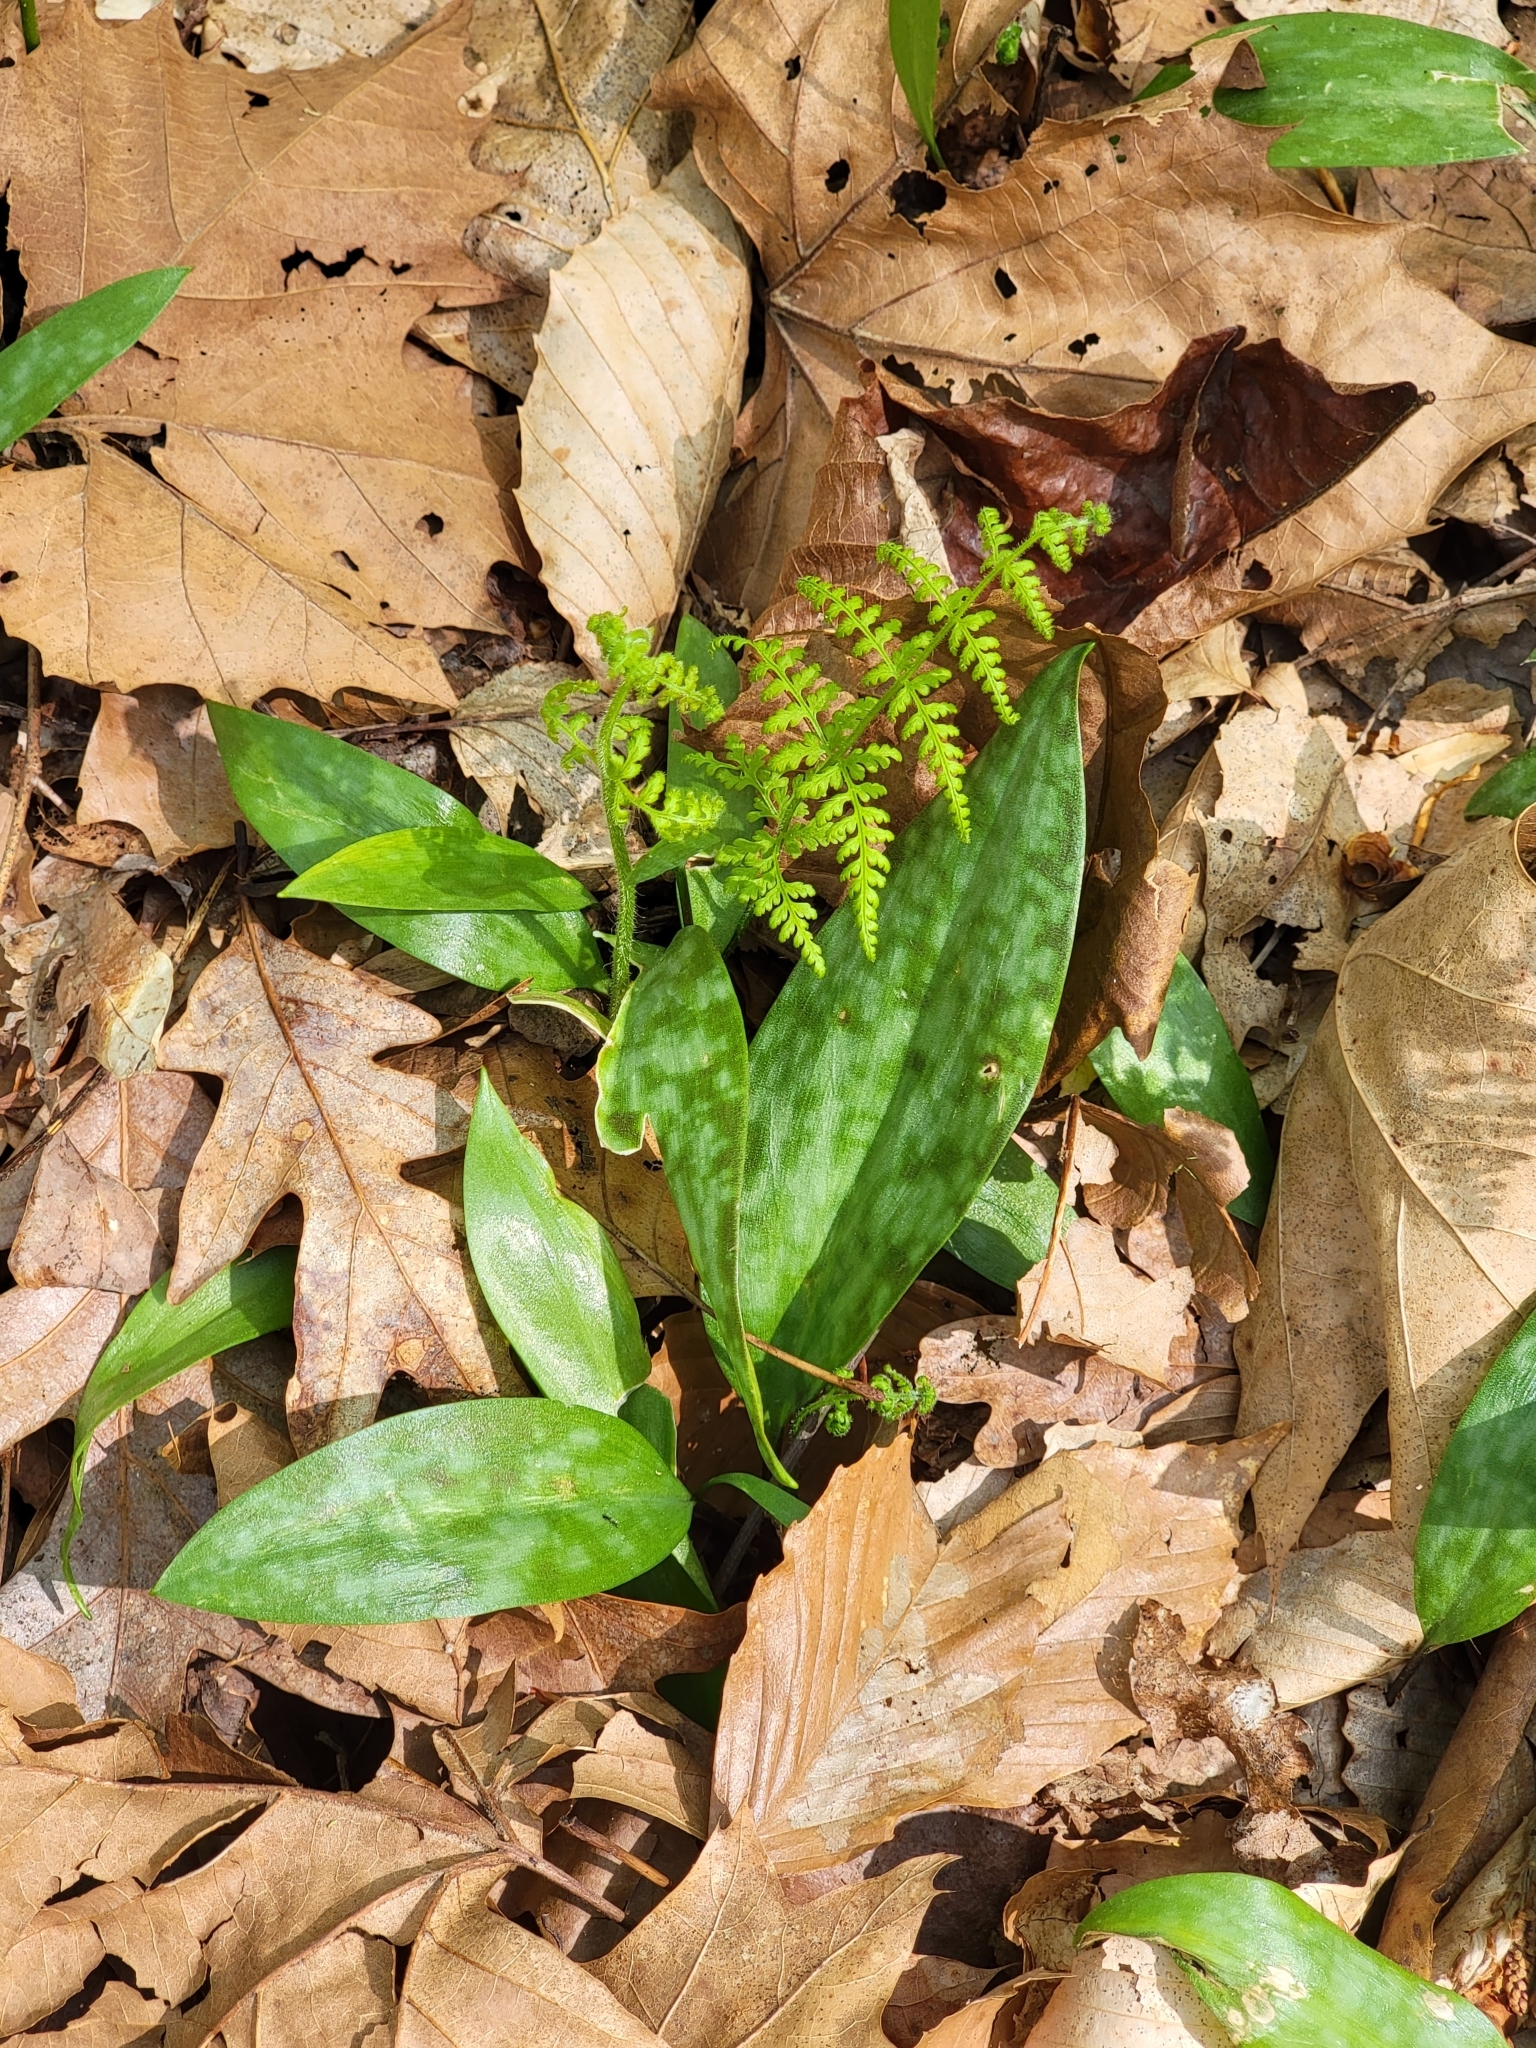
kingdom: Plantae
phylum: Tracheophyta
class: Liliopsida
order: Liliales
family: Liliaceae
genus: Erythronium
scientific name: Erythronium americanum
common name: Yellow adder's-tongue
